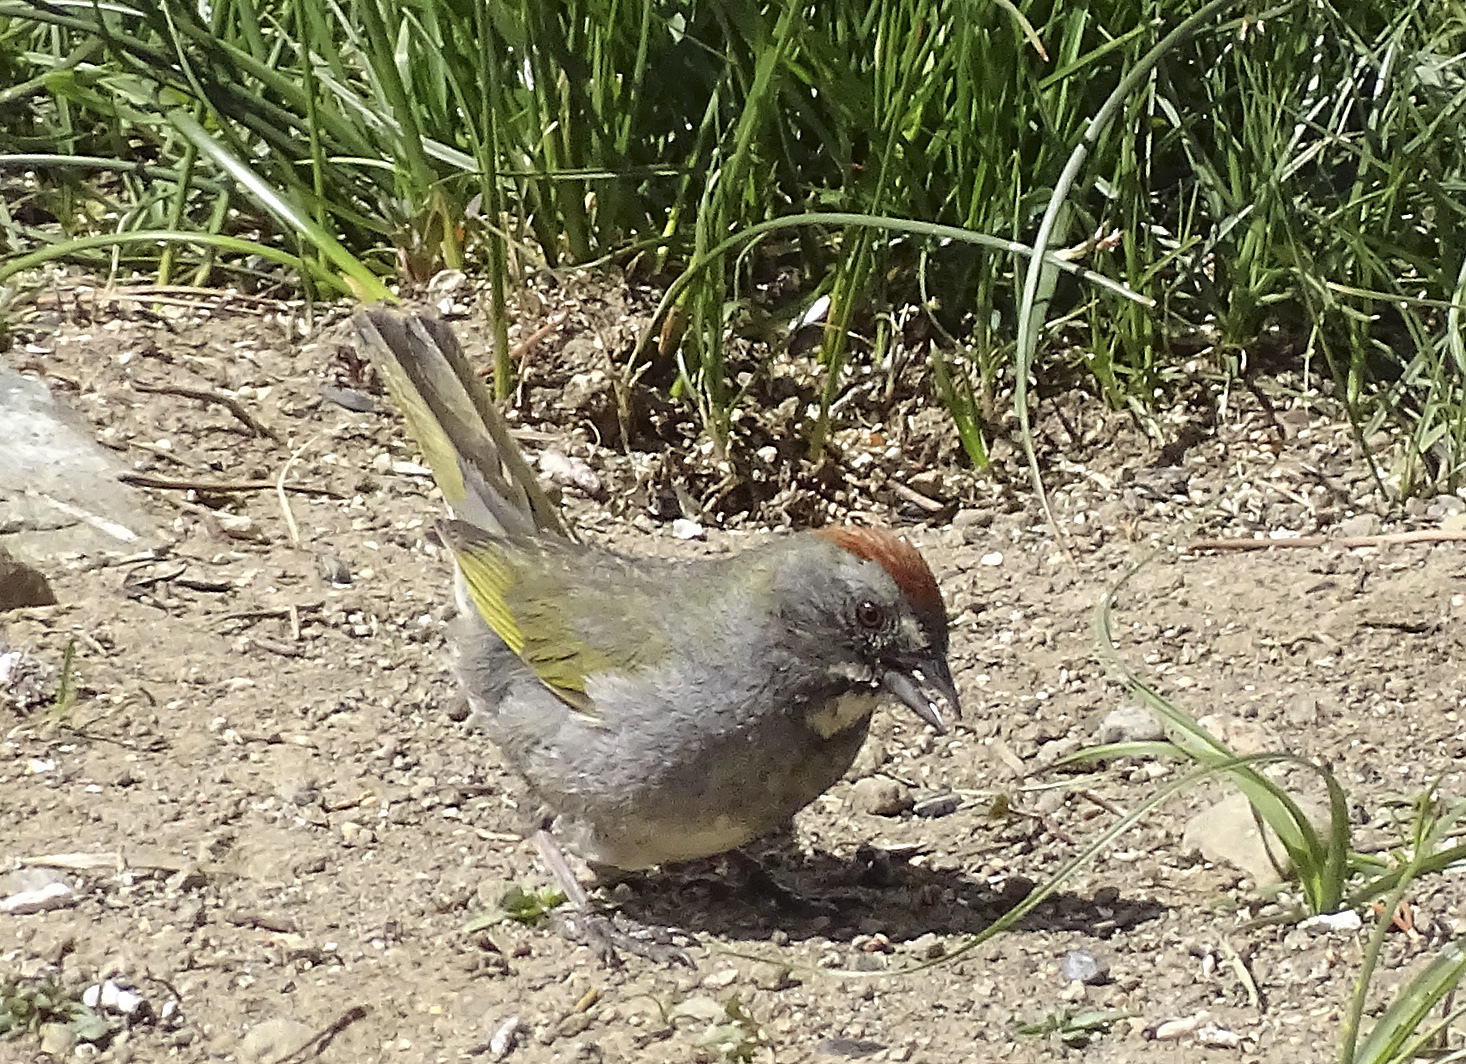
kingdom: Animalia
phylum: Chordata
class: Aves
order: Passeriformes
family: Passerellidae
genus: Pipilo
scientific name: Pipilo chlorurus
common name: Green-tailed towhee
